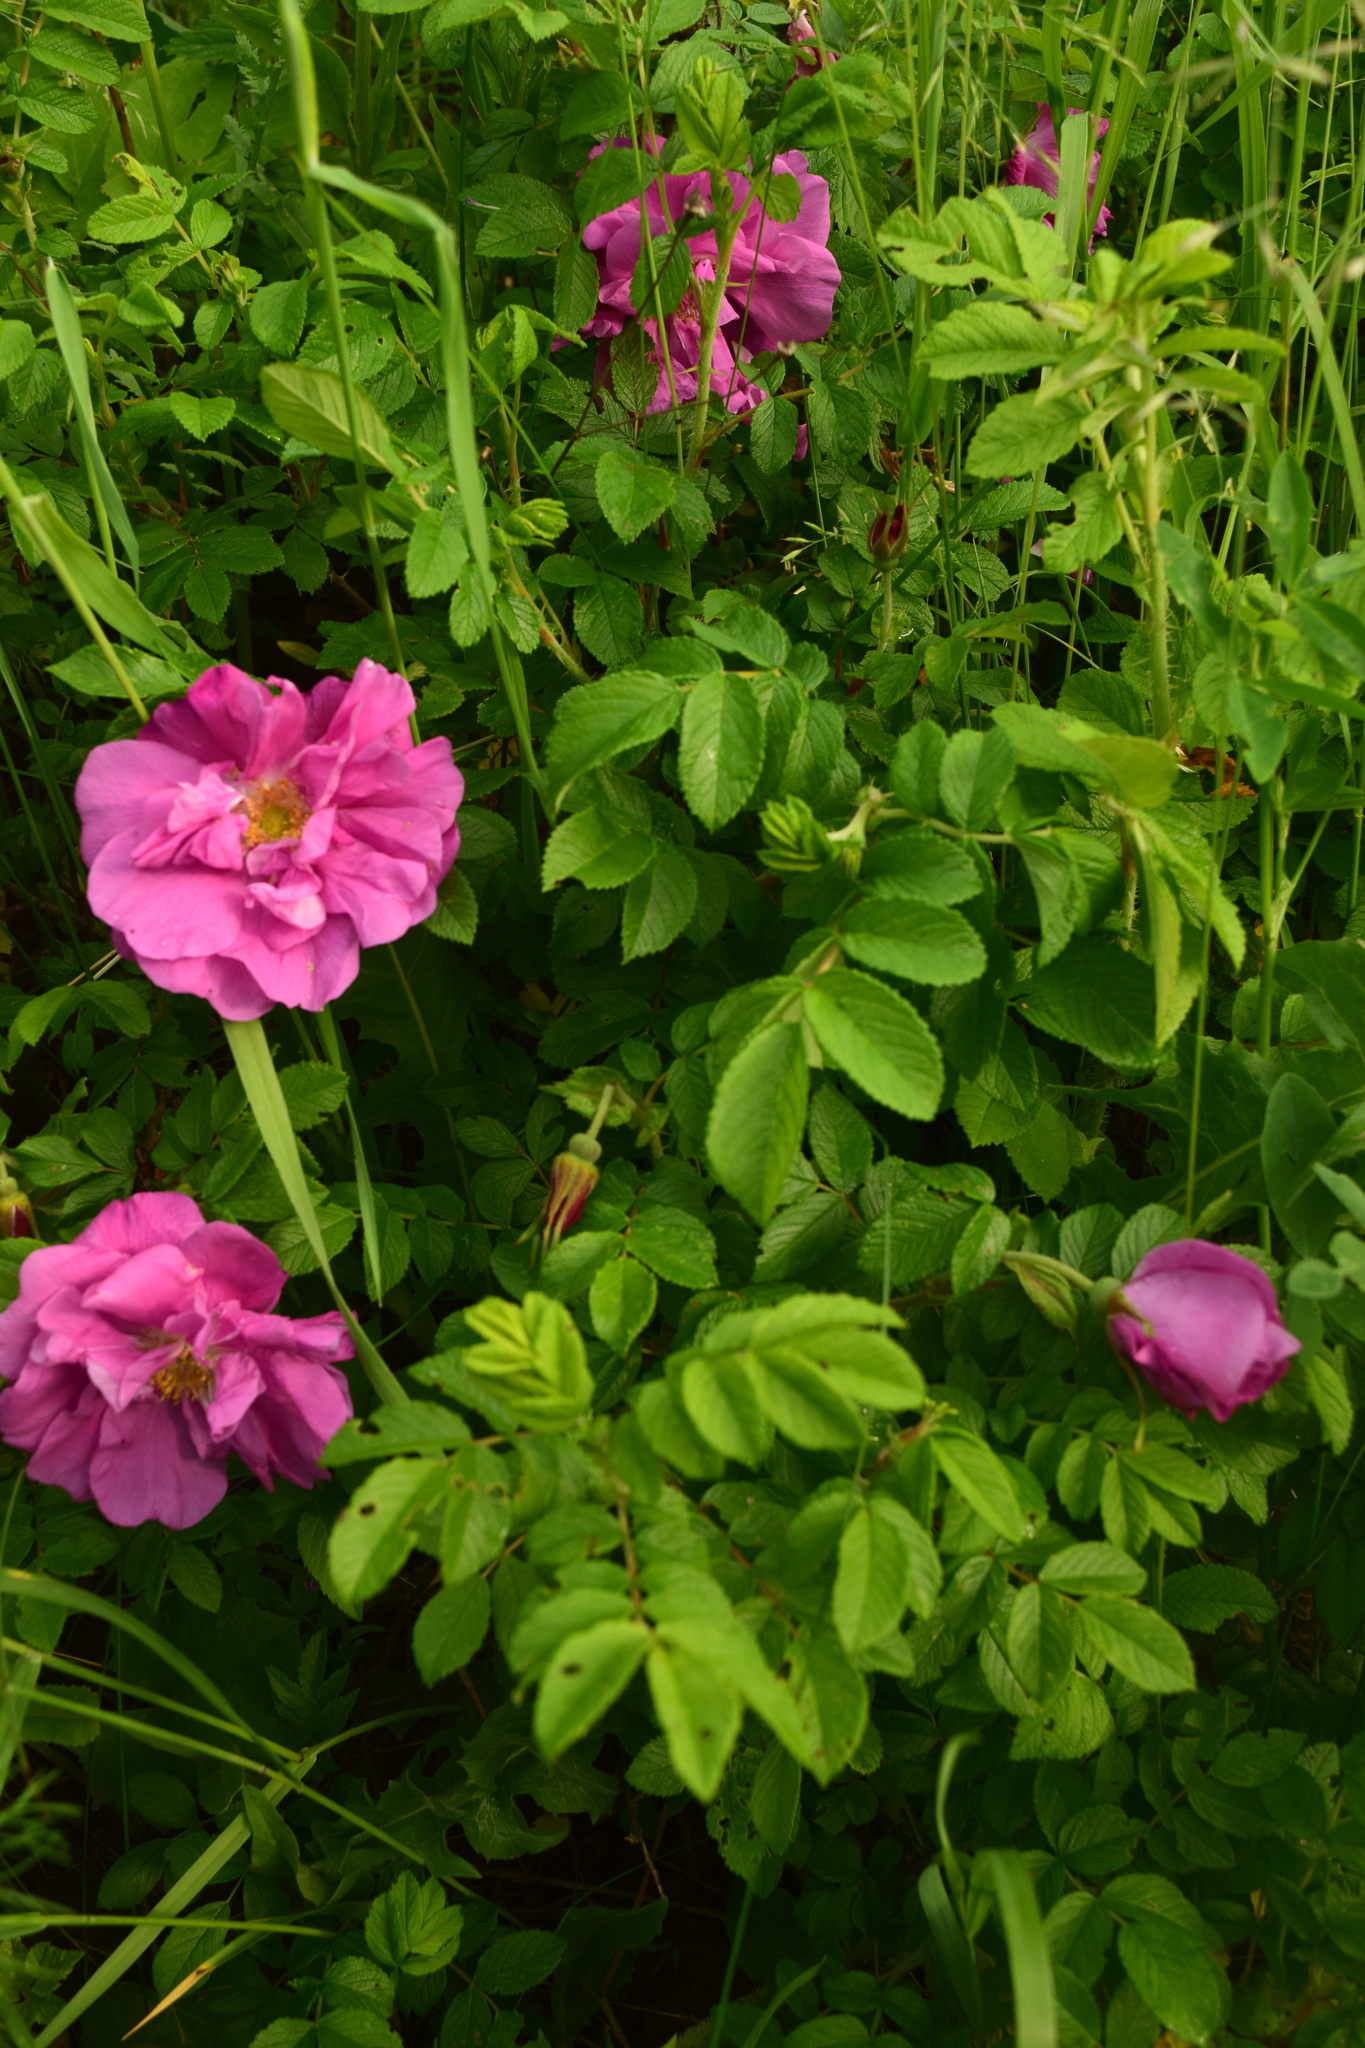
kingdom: Plantae
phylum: Tracheophyta
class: Magnoliopsida
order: Rosales
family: Rosaceae
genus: Rosa
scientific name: Rosa rugosa
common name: Japanese rose
